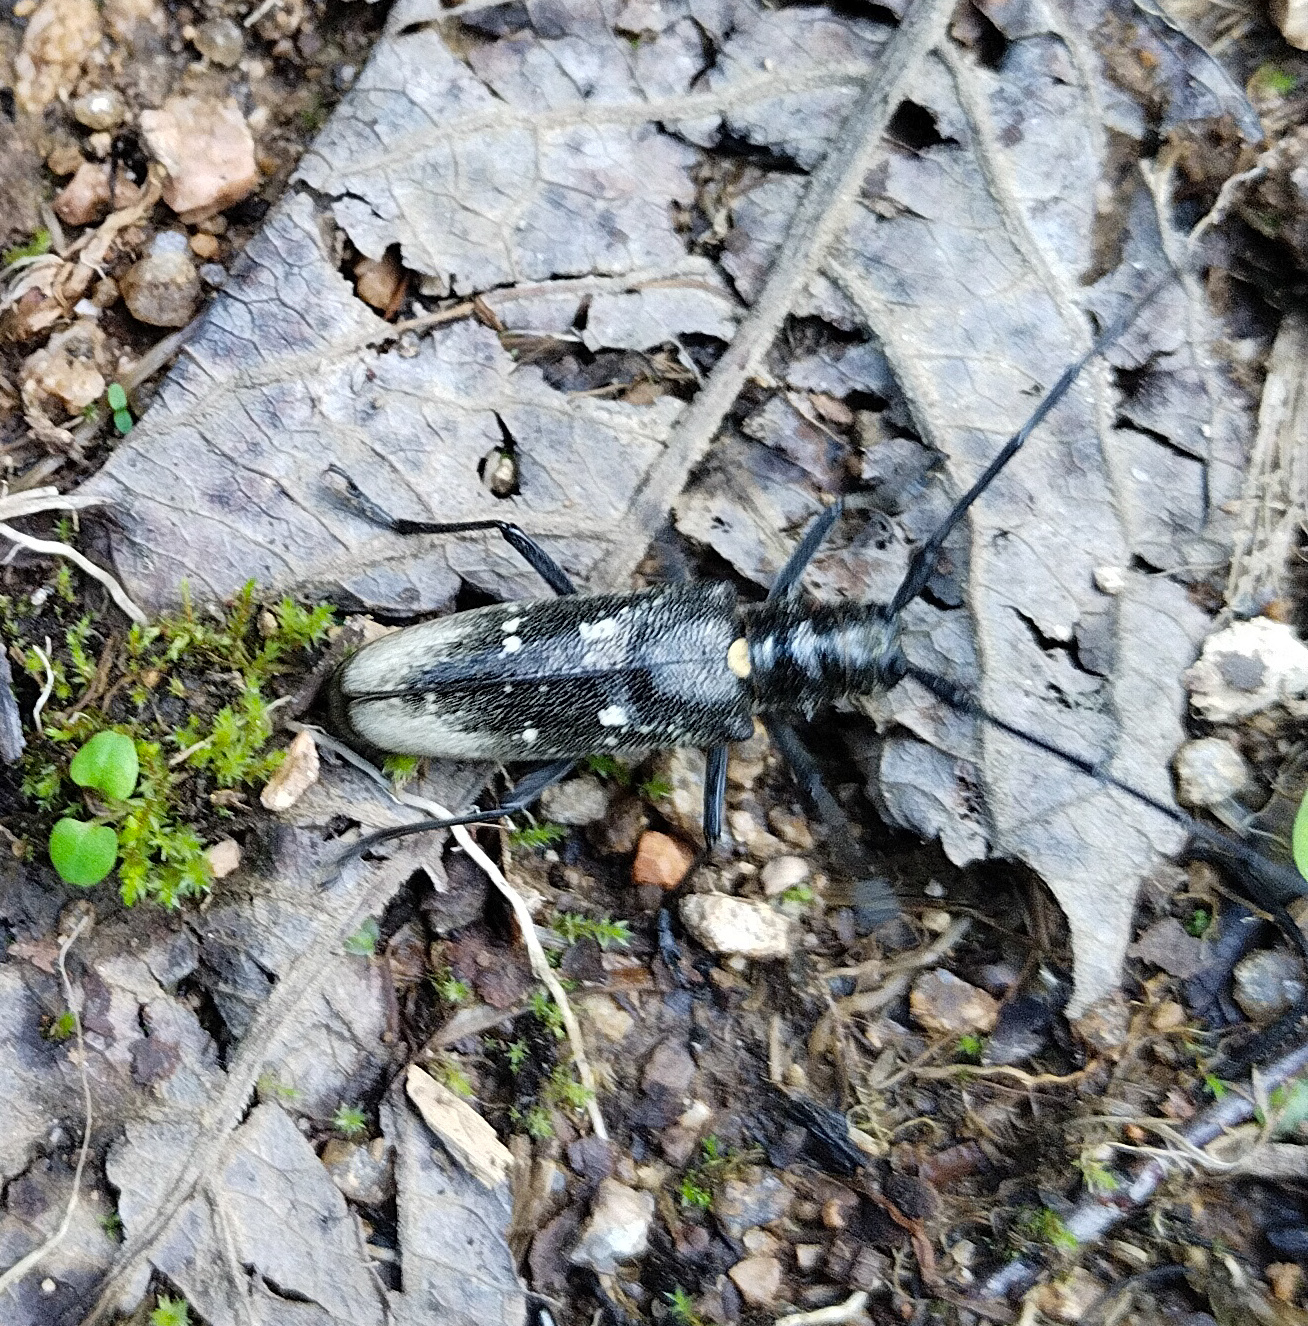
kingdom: Animalia
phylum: Arthropoda
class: Insecta
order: Coleoptera
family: Cerambycidae
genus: Monochamus
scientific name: Monochamus sartor
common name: Pine sawyer
